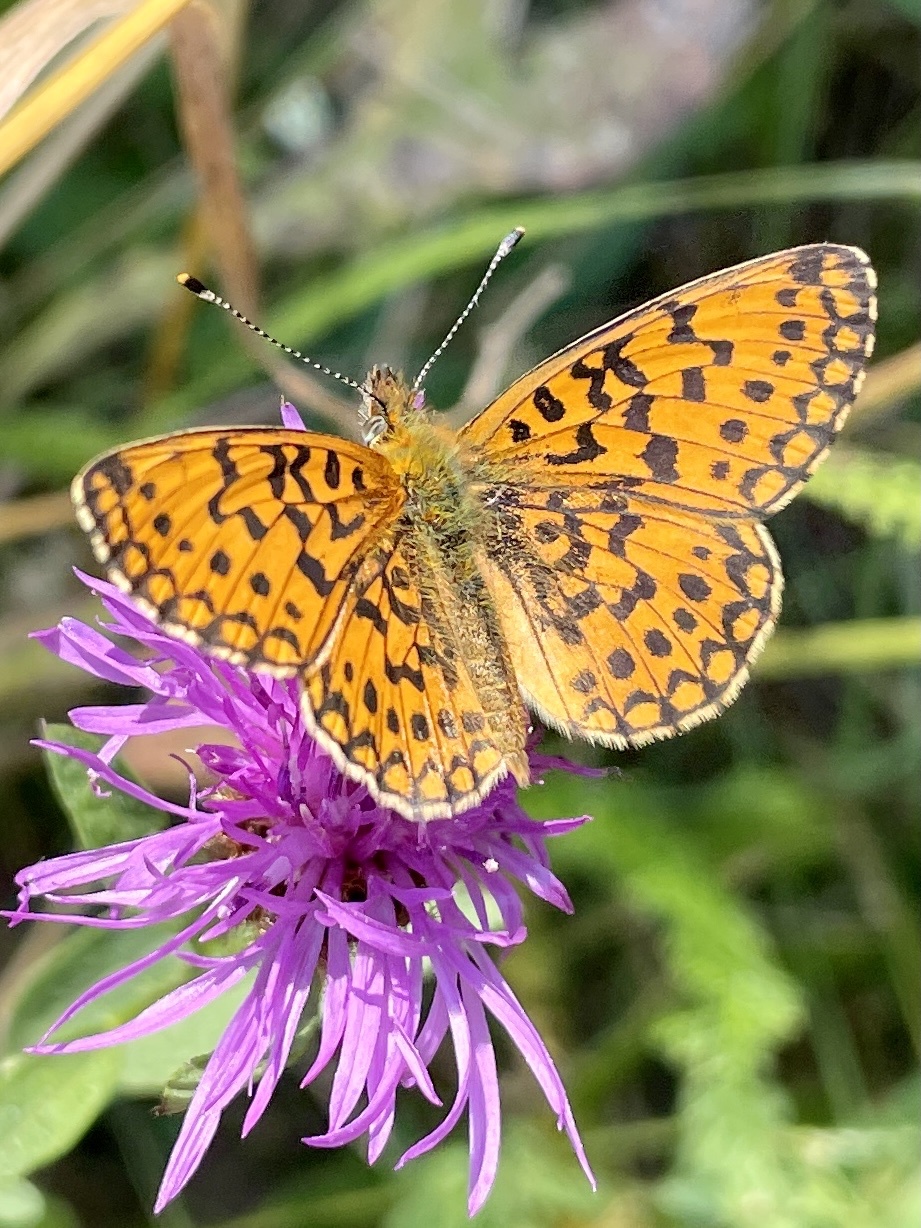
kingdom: Animalia
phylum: Arthropoda
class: Insecta
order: Lepidoptera
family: Nymphalidae
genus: Boloria
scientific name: Boloria selene
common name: Small pearl-bordered fritillary
